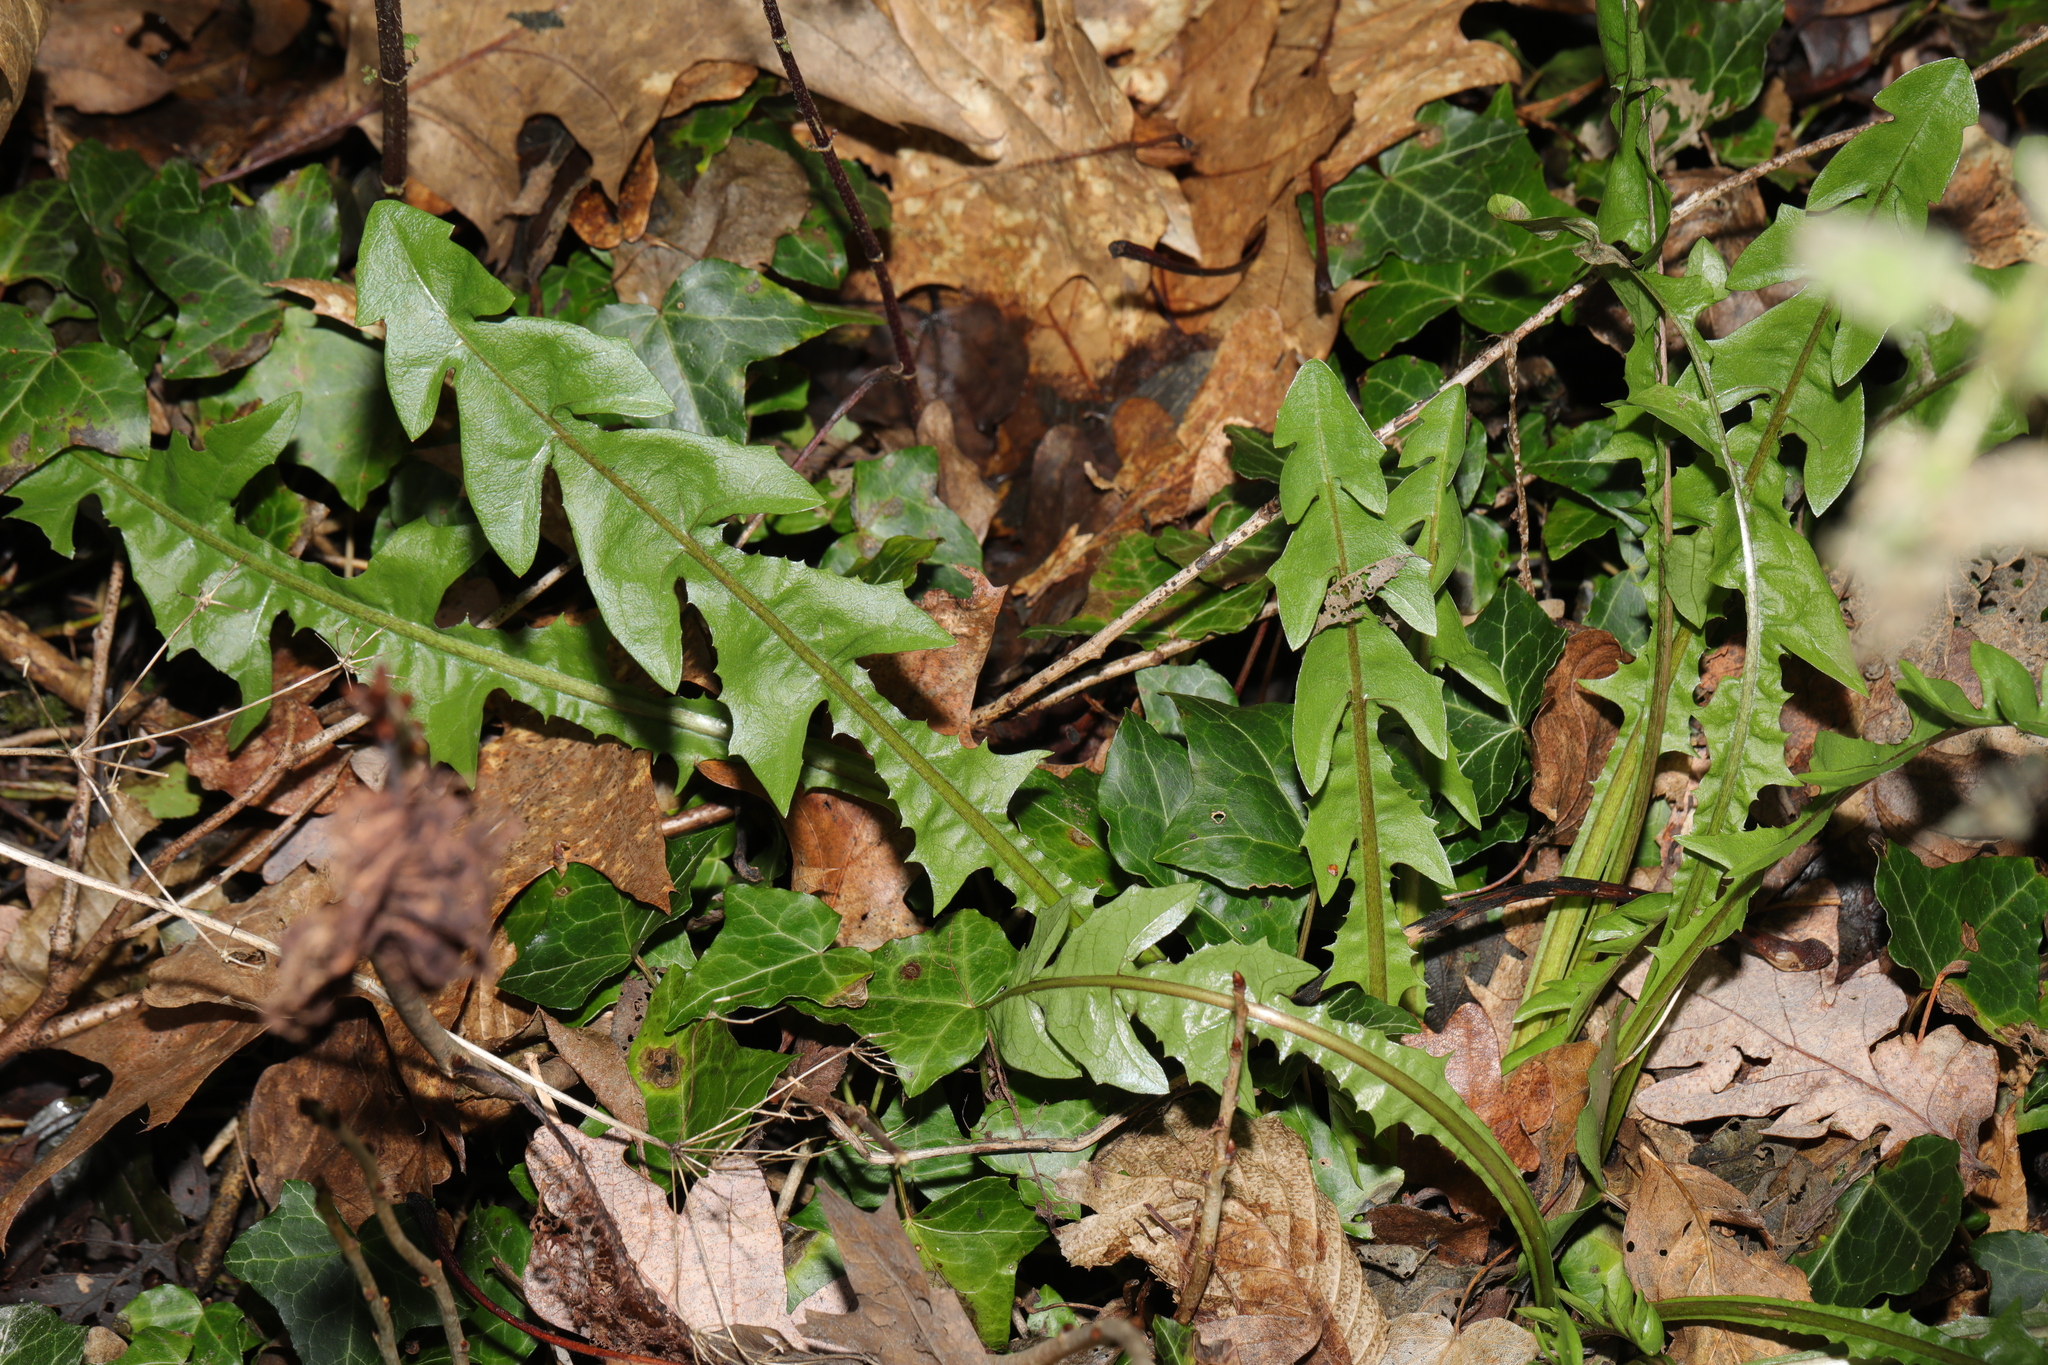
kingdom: Plantae
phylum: Tracheophyta
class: Magnoliopsida
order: Asterales
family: Asteraceae
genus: Taraxacum
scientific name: Taraxacum officinale
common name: Common dandelion
